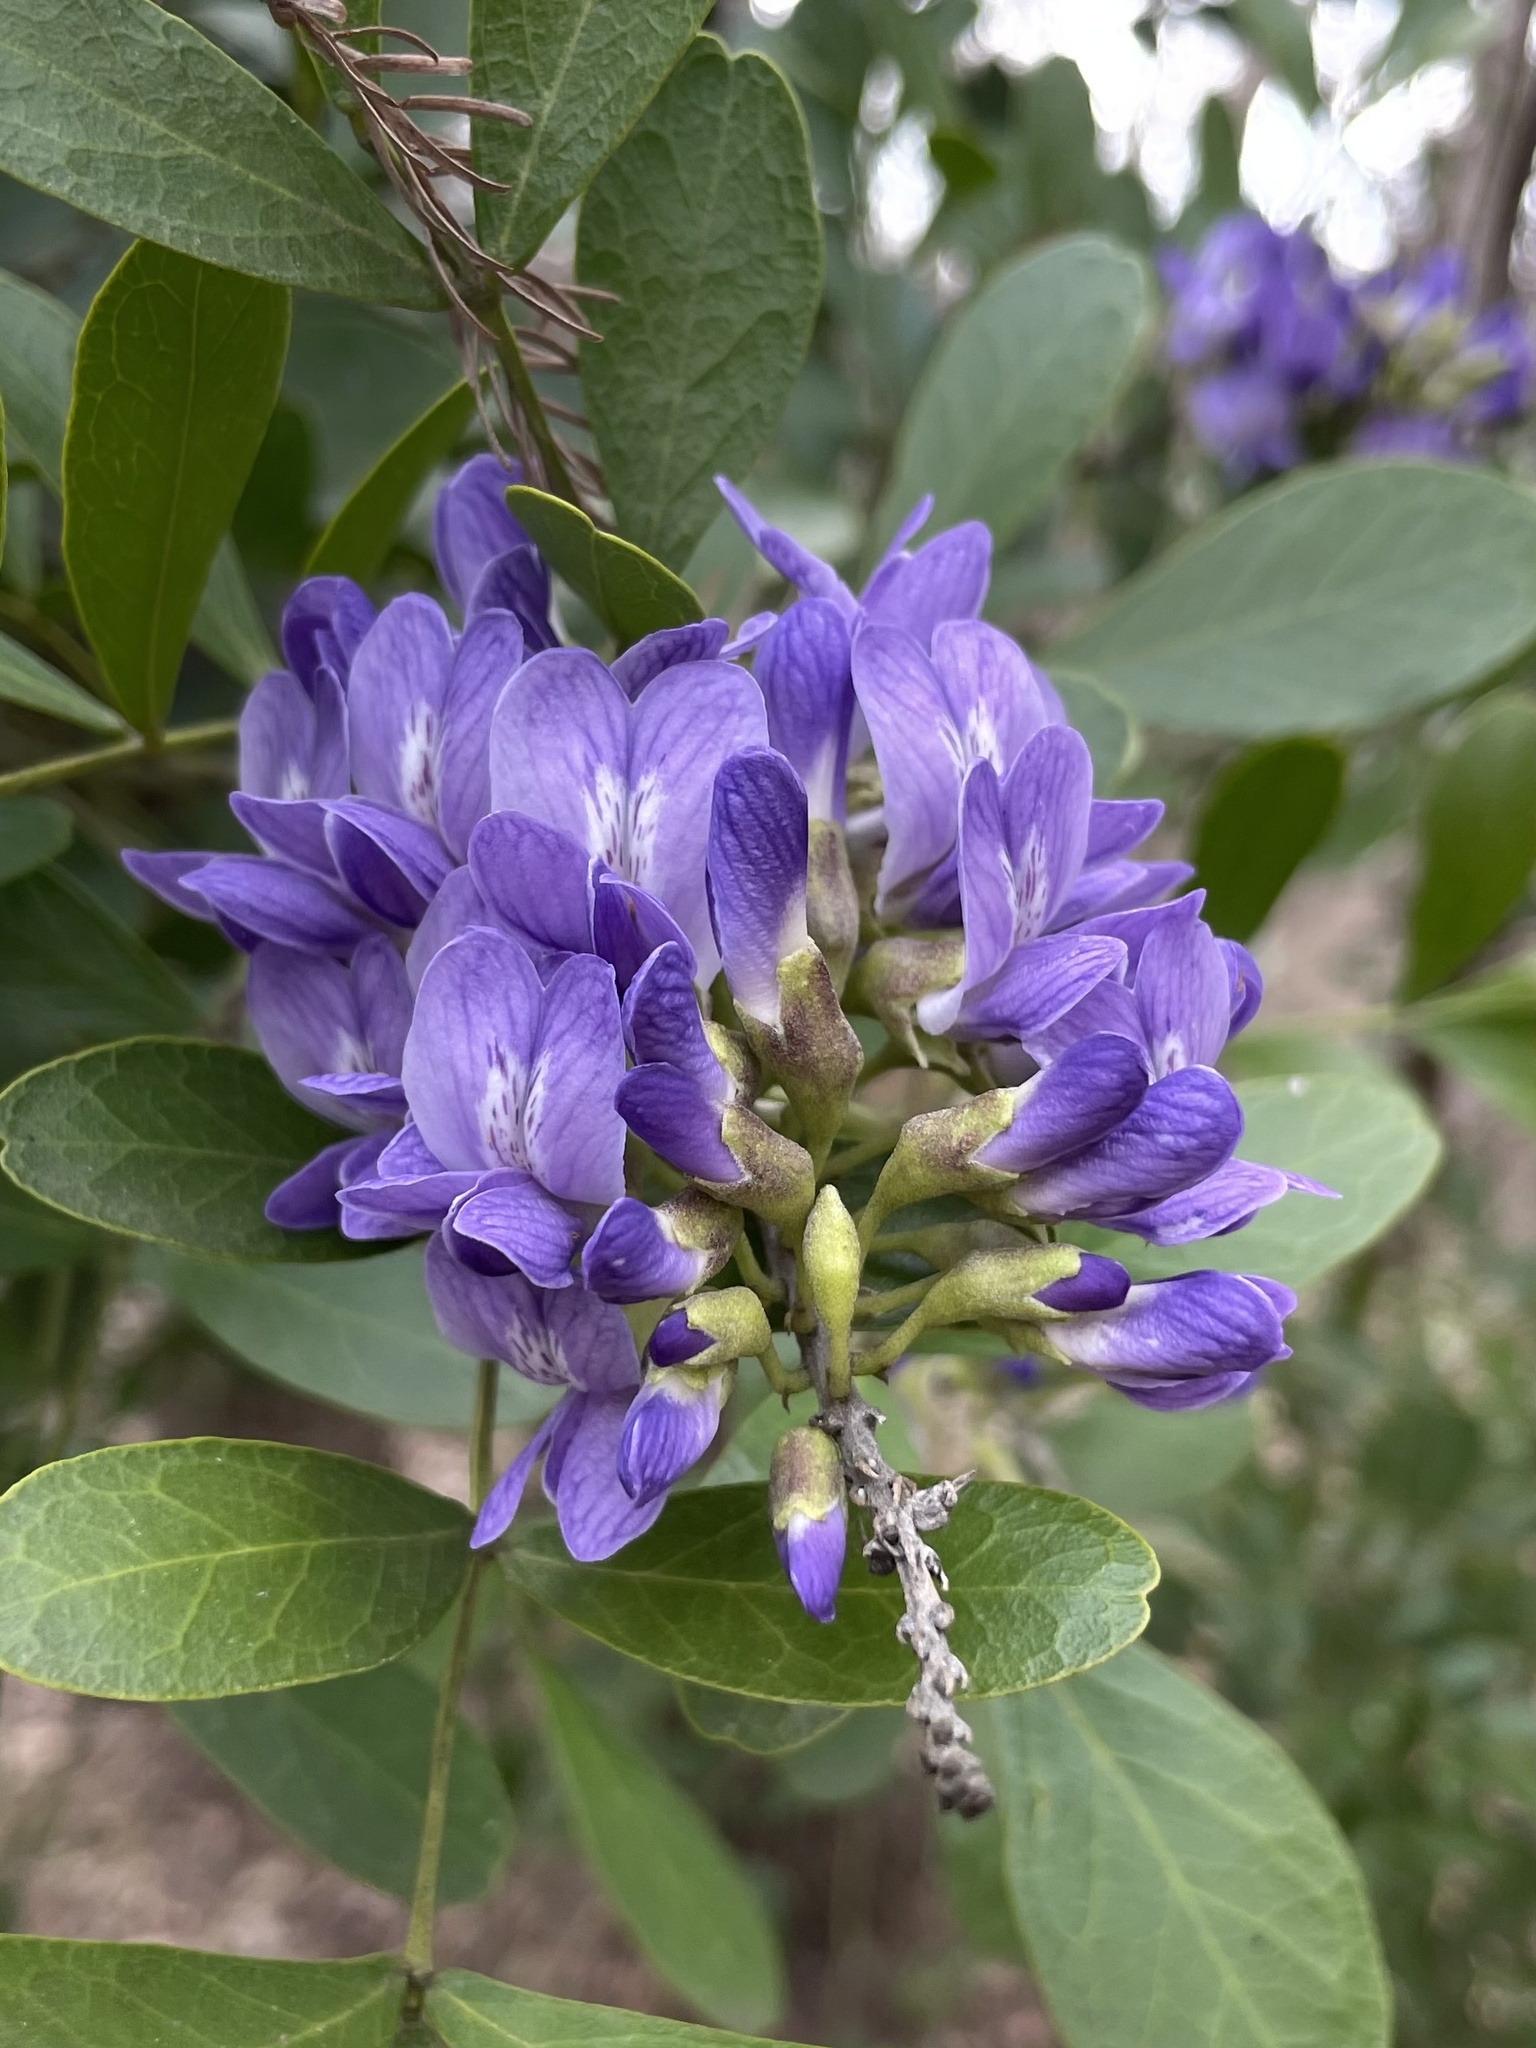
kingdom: Plantae
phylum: Tracheophyta
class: Magnoliopsida
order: Fabales
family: Fabaceae
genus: Dermatophyllum
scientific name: Dermatophyllum secundiflorum
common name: Texas-mountain-laurel
